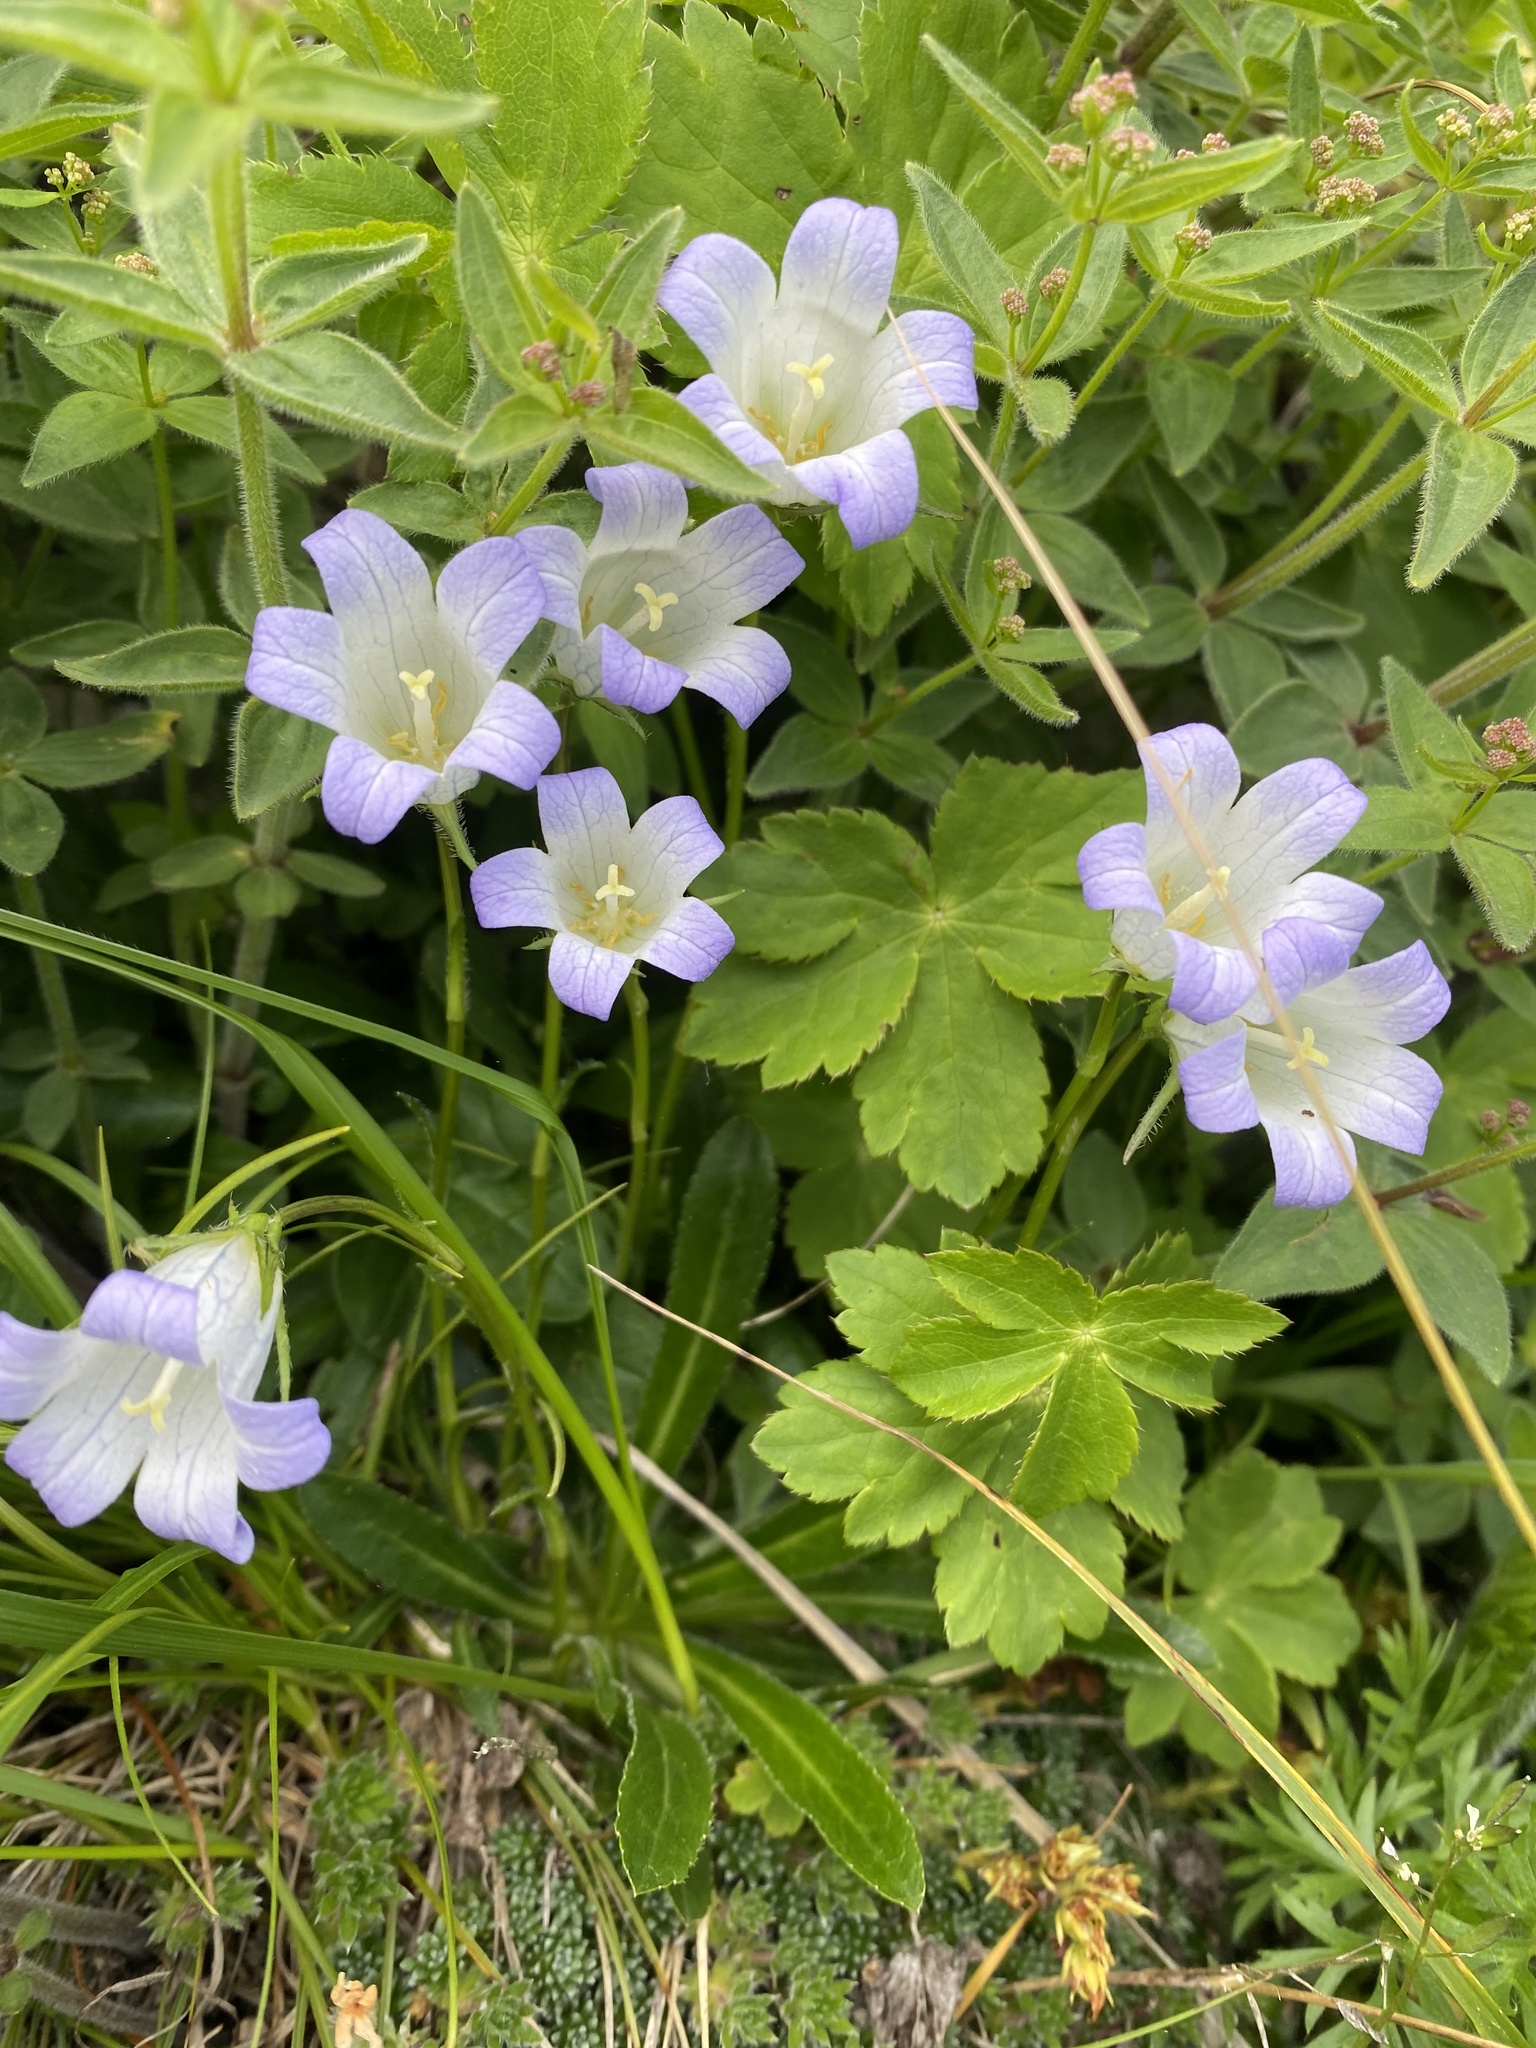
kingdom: Plantae
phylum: Tracheophyta
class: Magnoliopsida
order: Asterales
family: Campanulaceae
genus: Campanula
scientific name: Campanula ciliata
